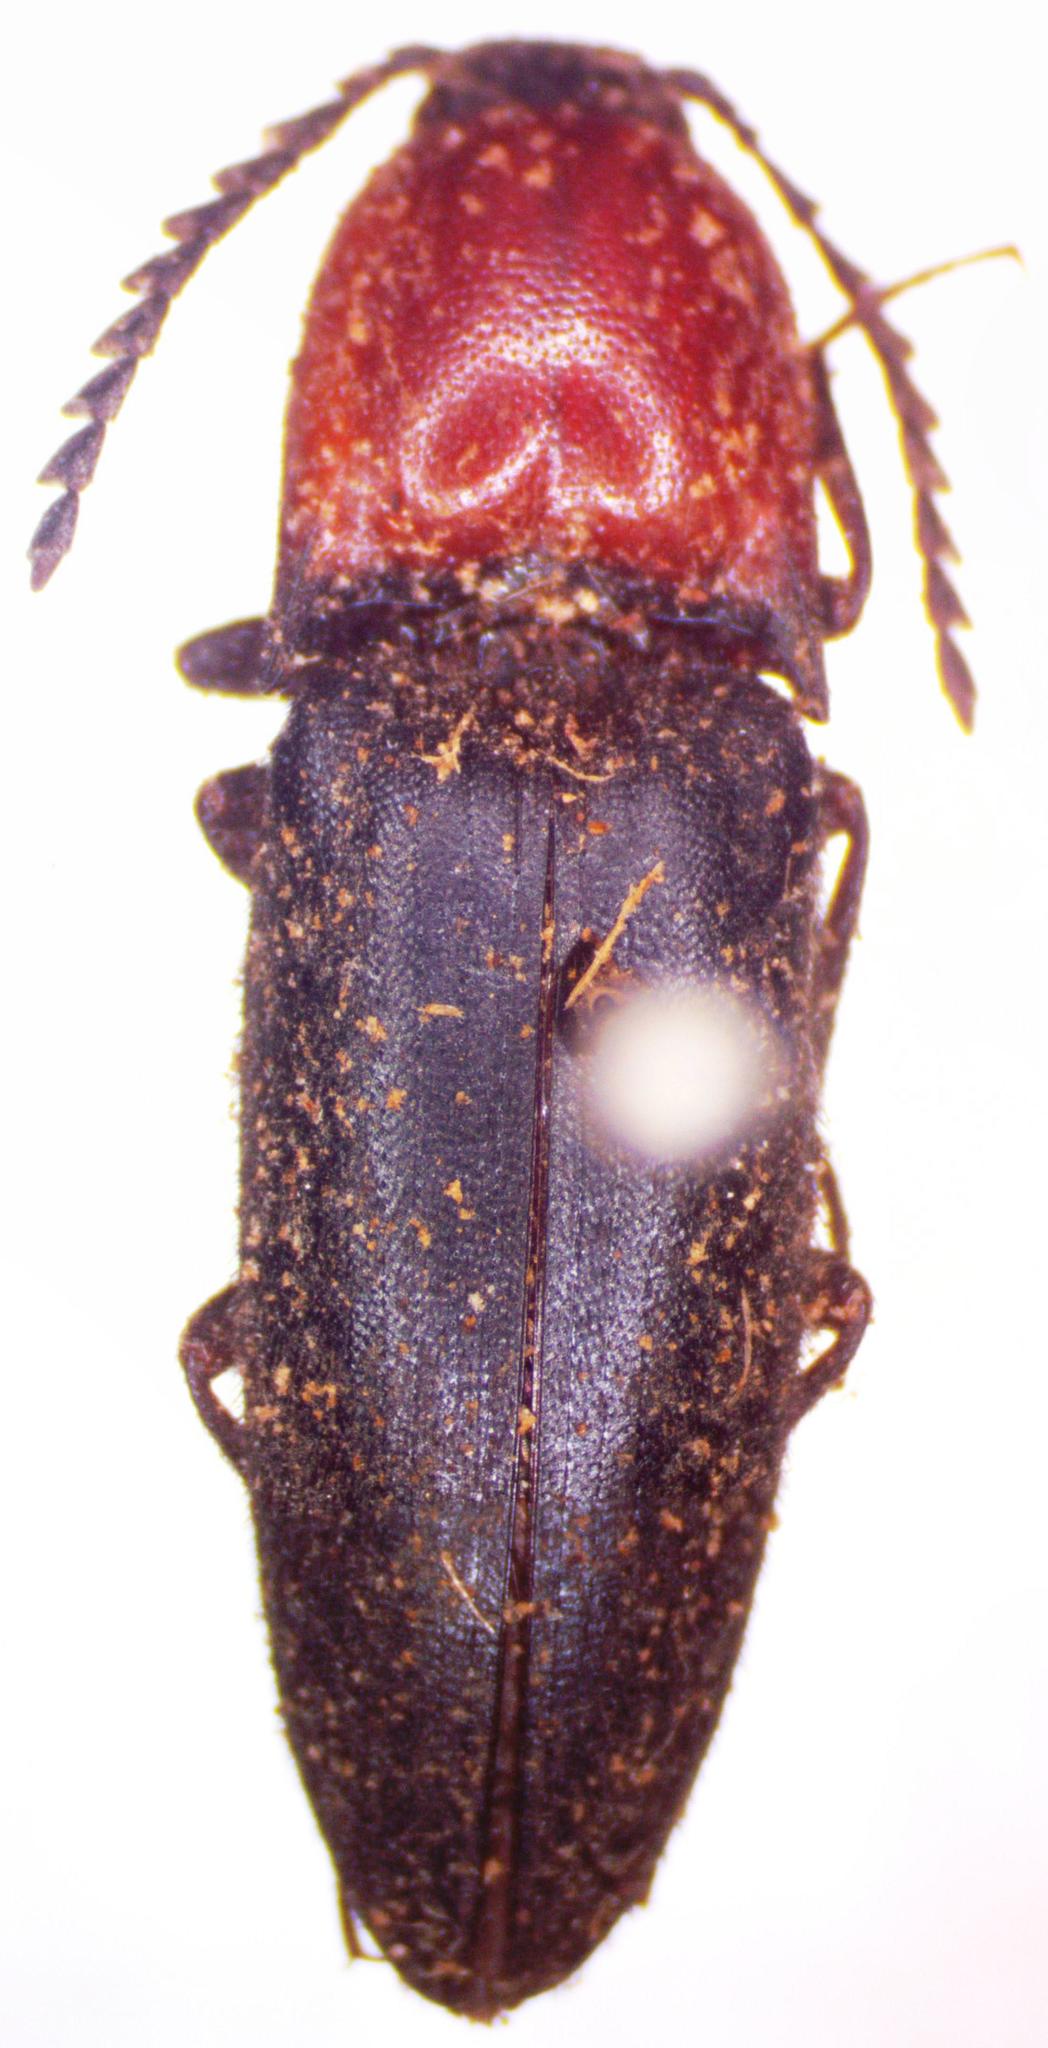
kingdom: Animalia
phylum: Arthropoda
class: Insecta
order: Coleoptera
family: Elateridae
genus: Cardiophorus
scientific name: Cardiophorus ruficollis
